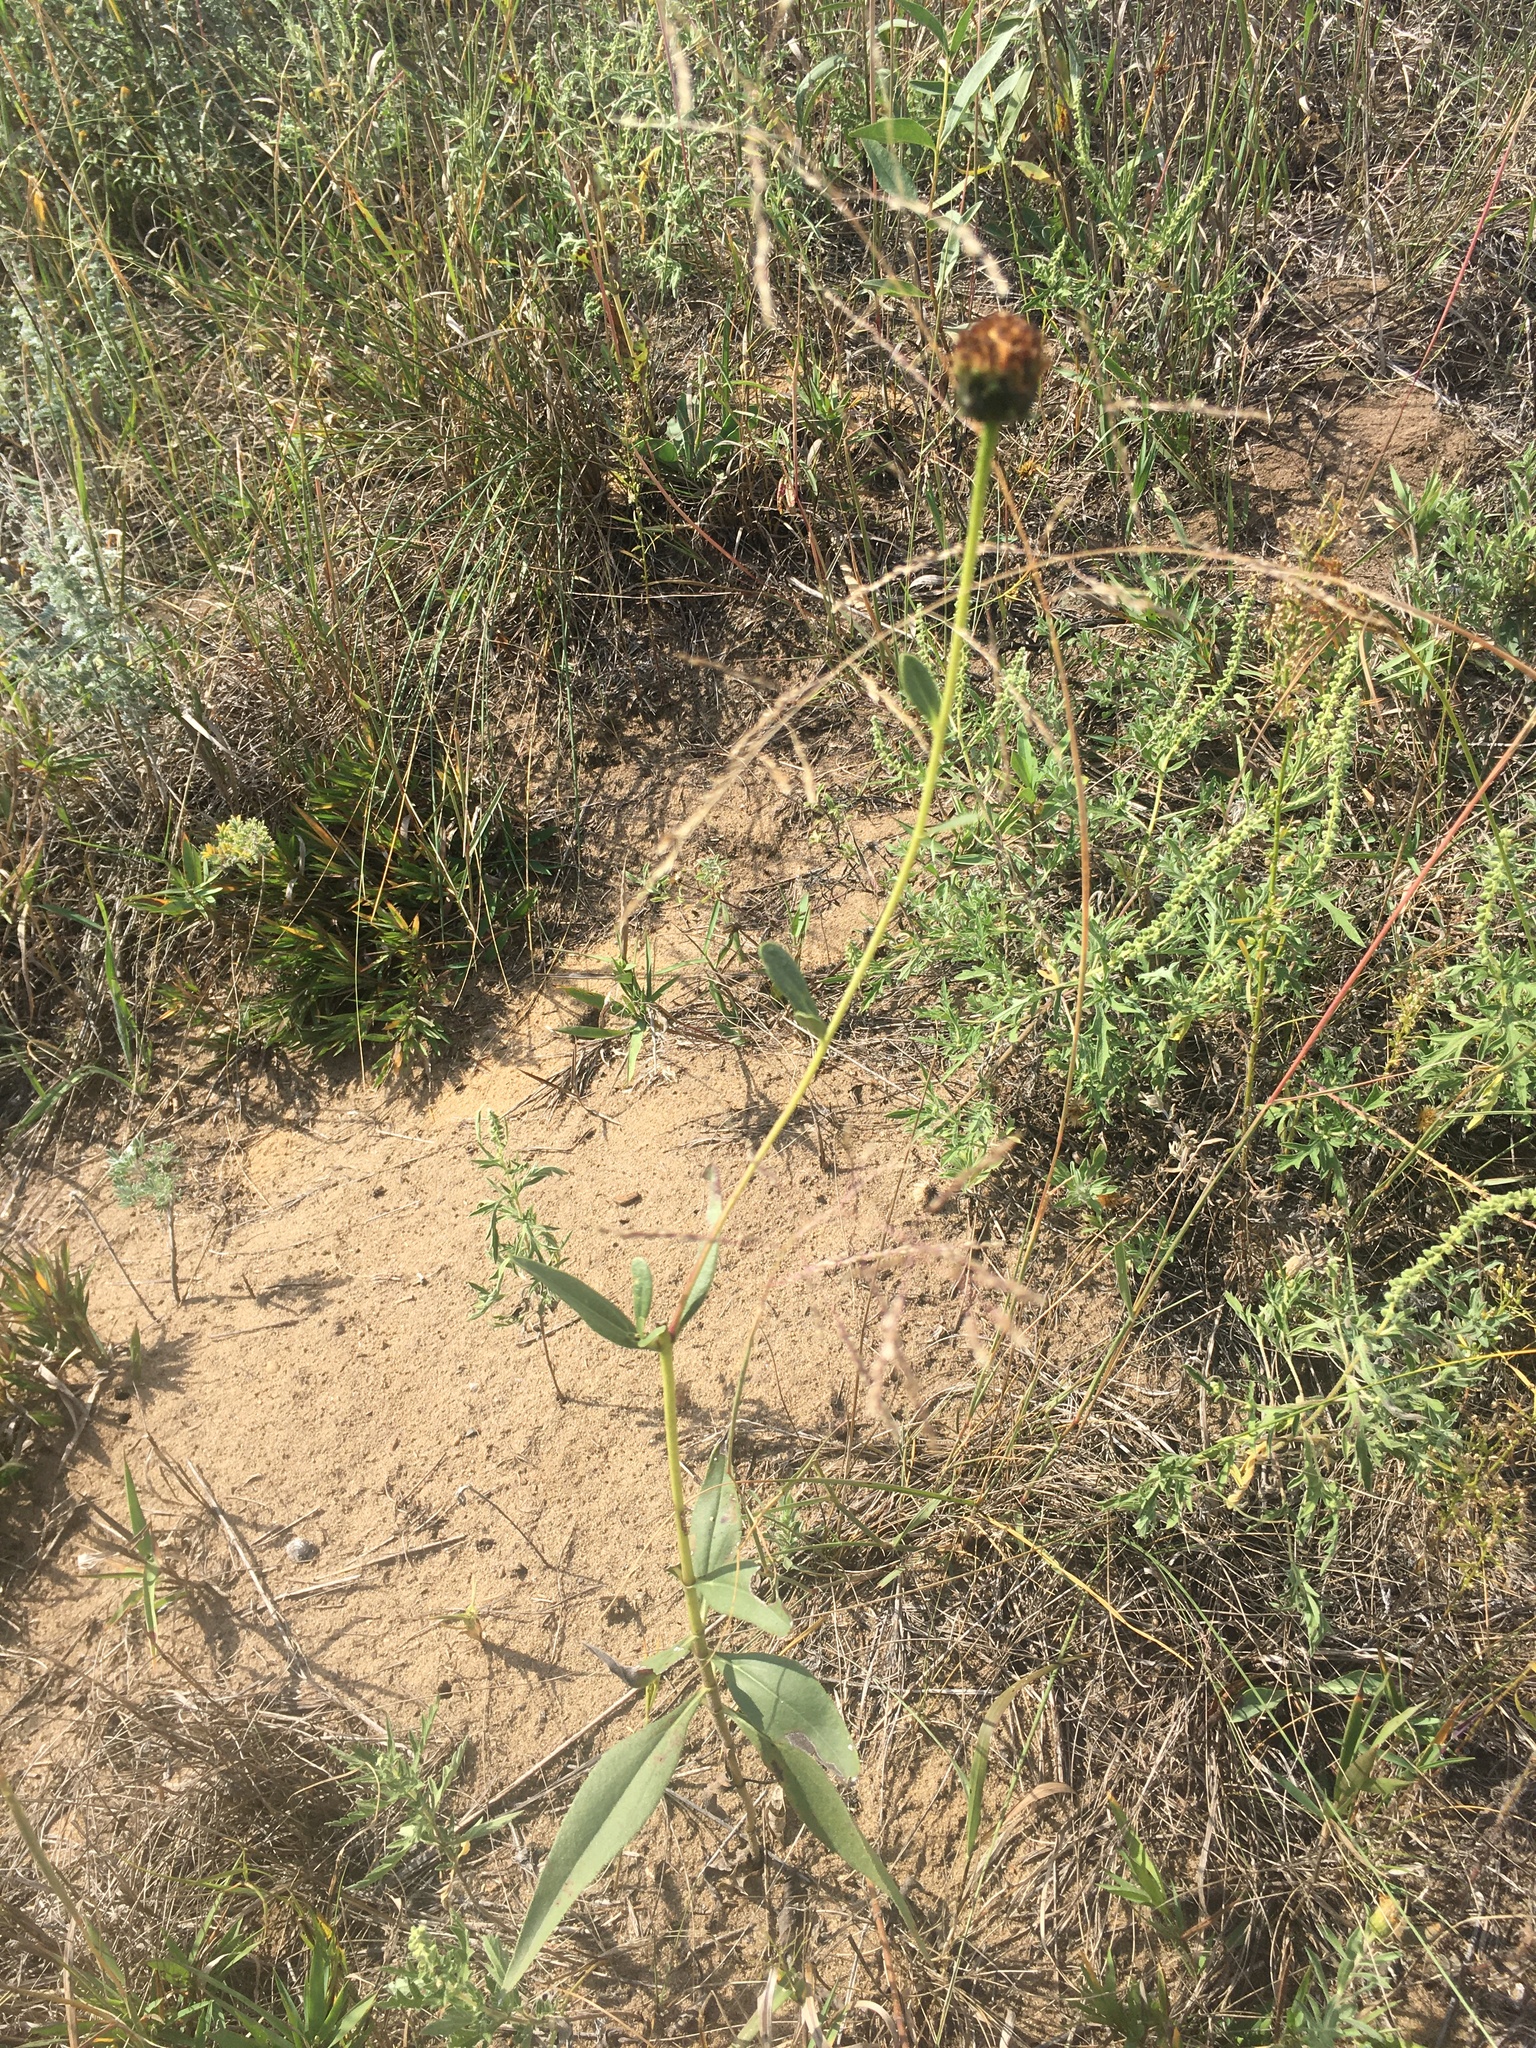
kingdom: Plantae
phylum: Tracheophyta
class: Magnoliopsida
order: Asterales
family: Asteraceae
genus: Helianthus
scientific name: Helianthus pauciflorus
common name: Stiff sunflower
